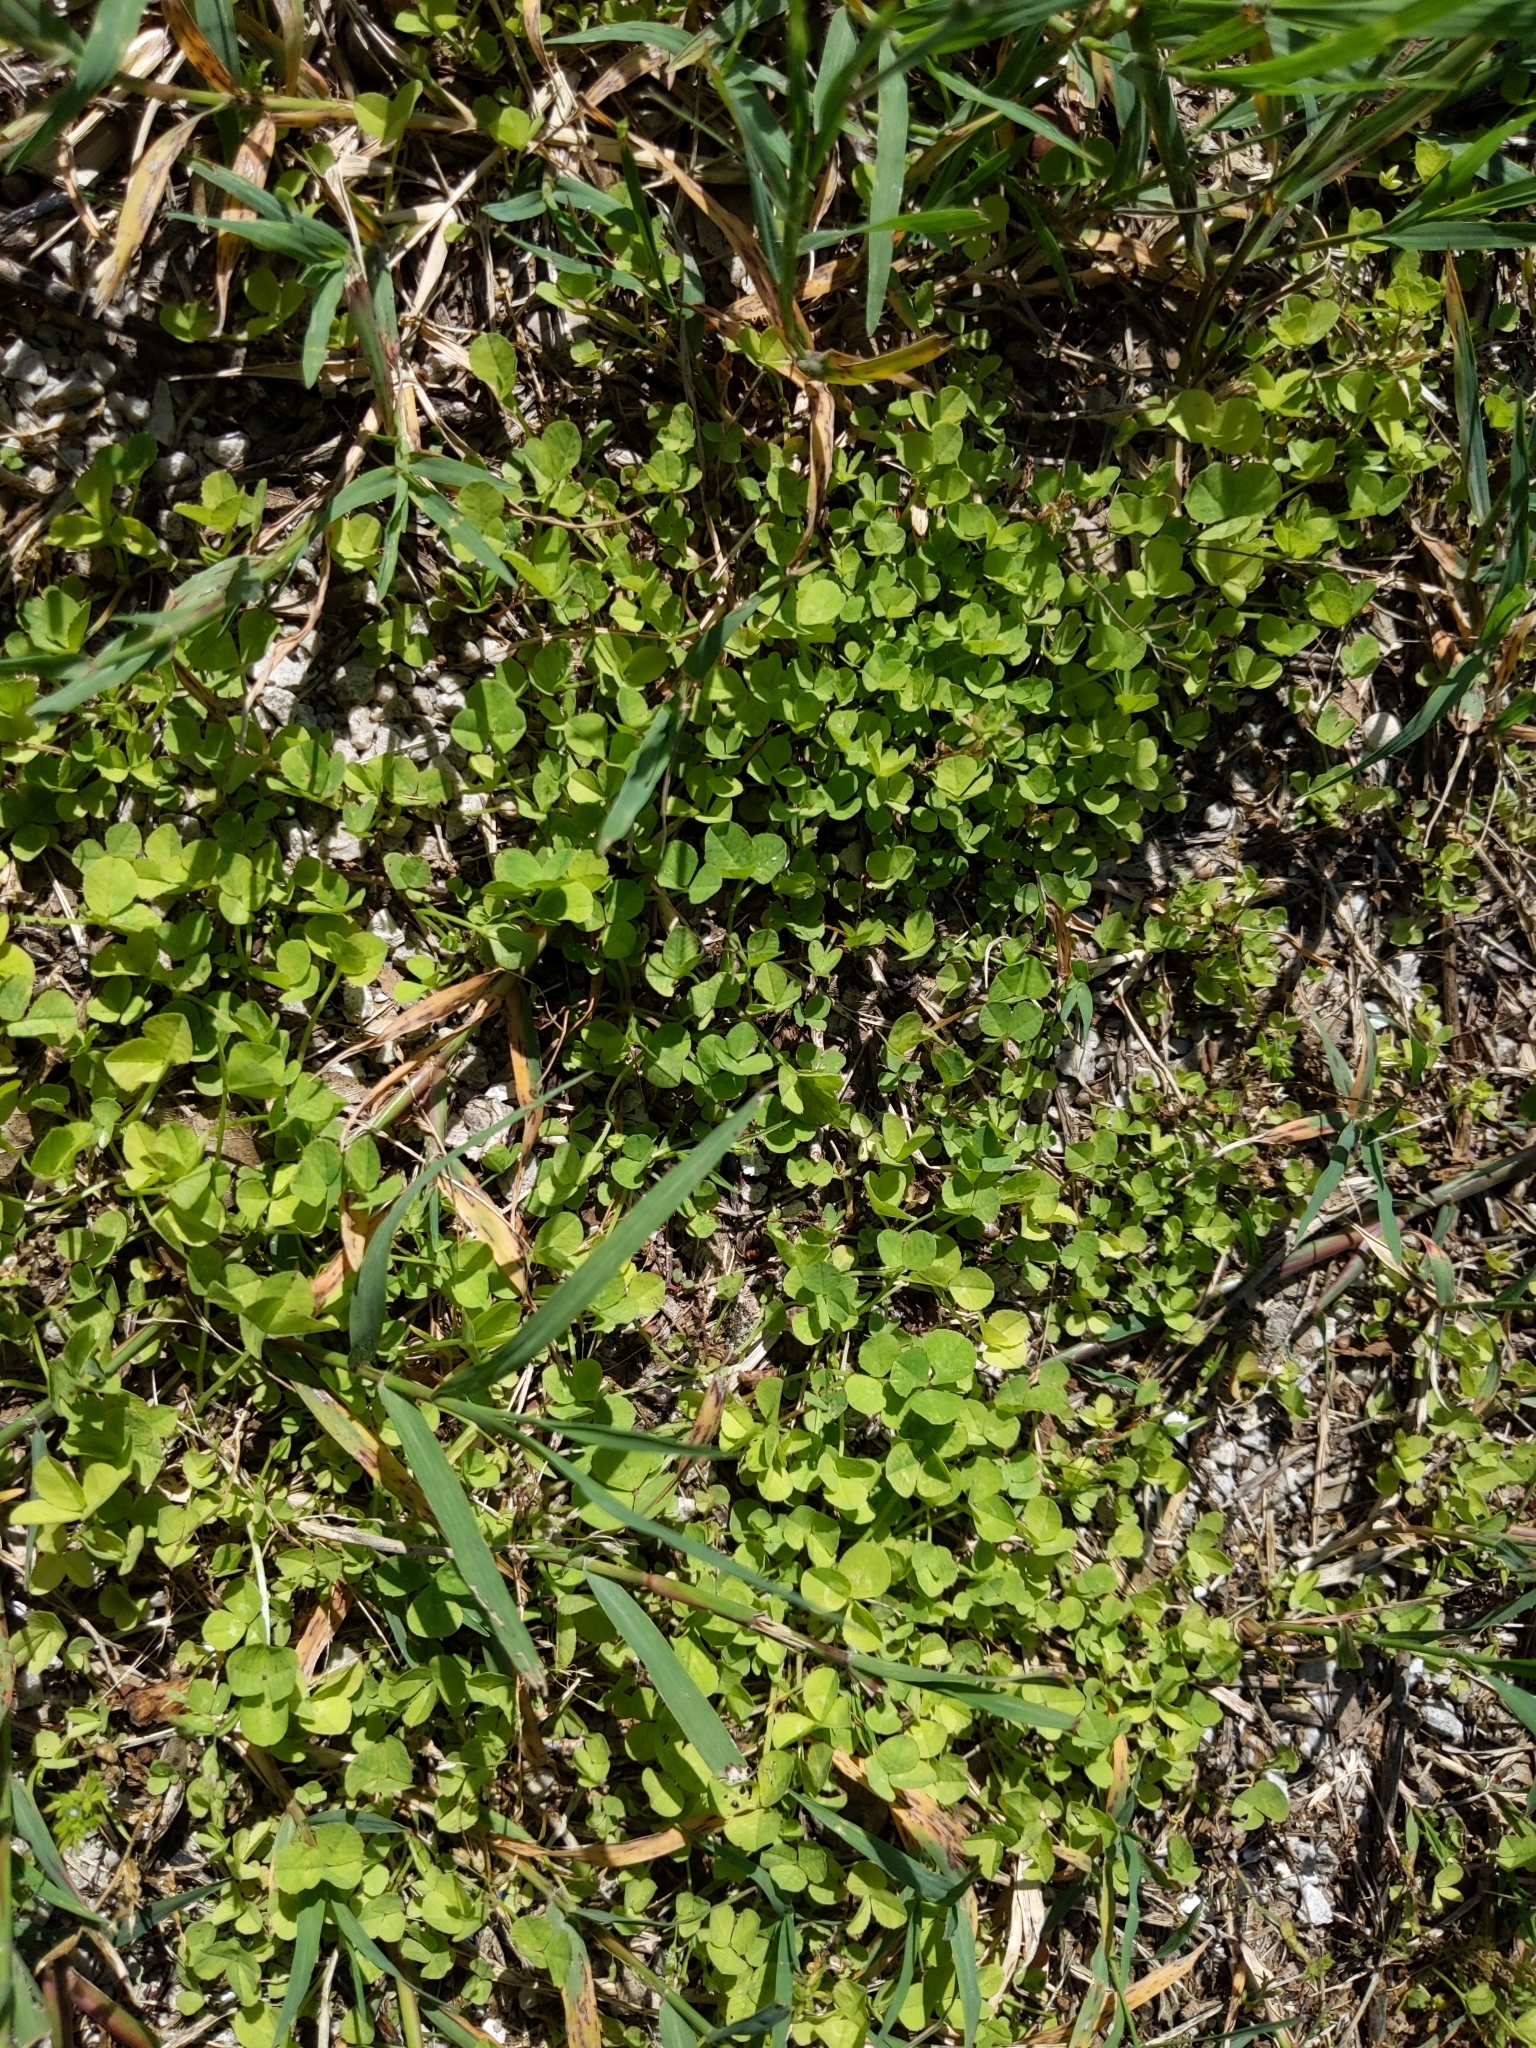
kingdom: Plantae
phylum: Tracheophyta
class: Magnoliopsida
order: Fabales
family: Fabaceae
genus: Trifolium
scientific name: Trifolium repens
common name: White clover
